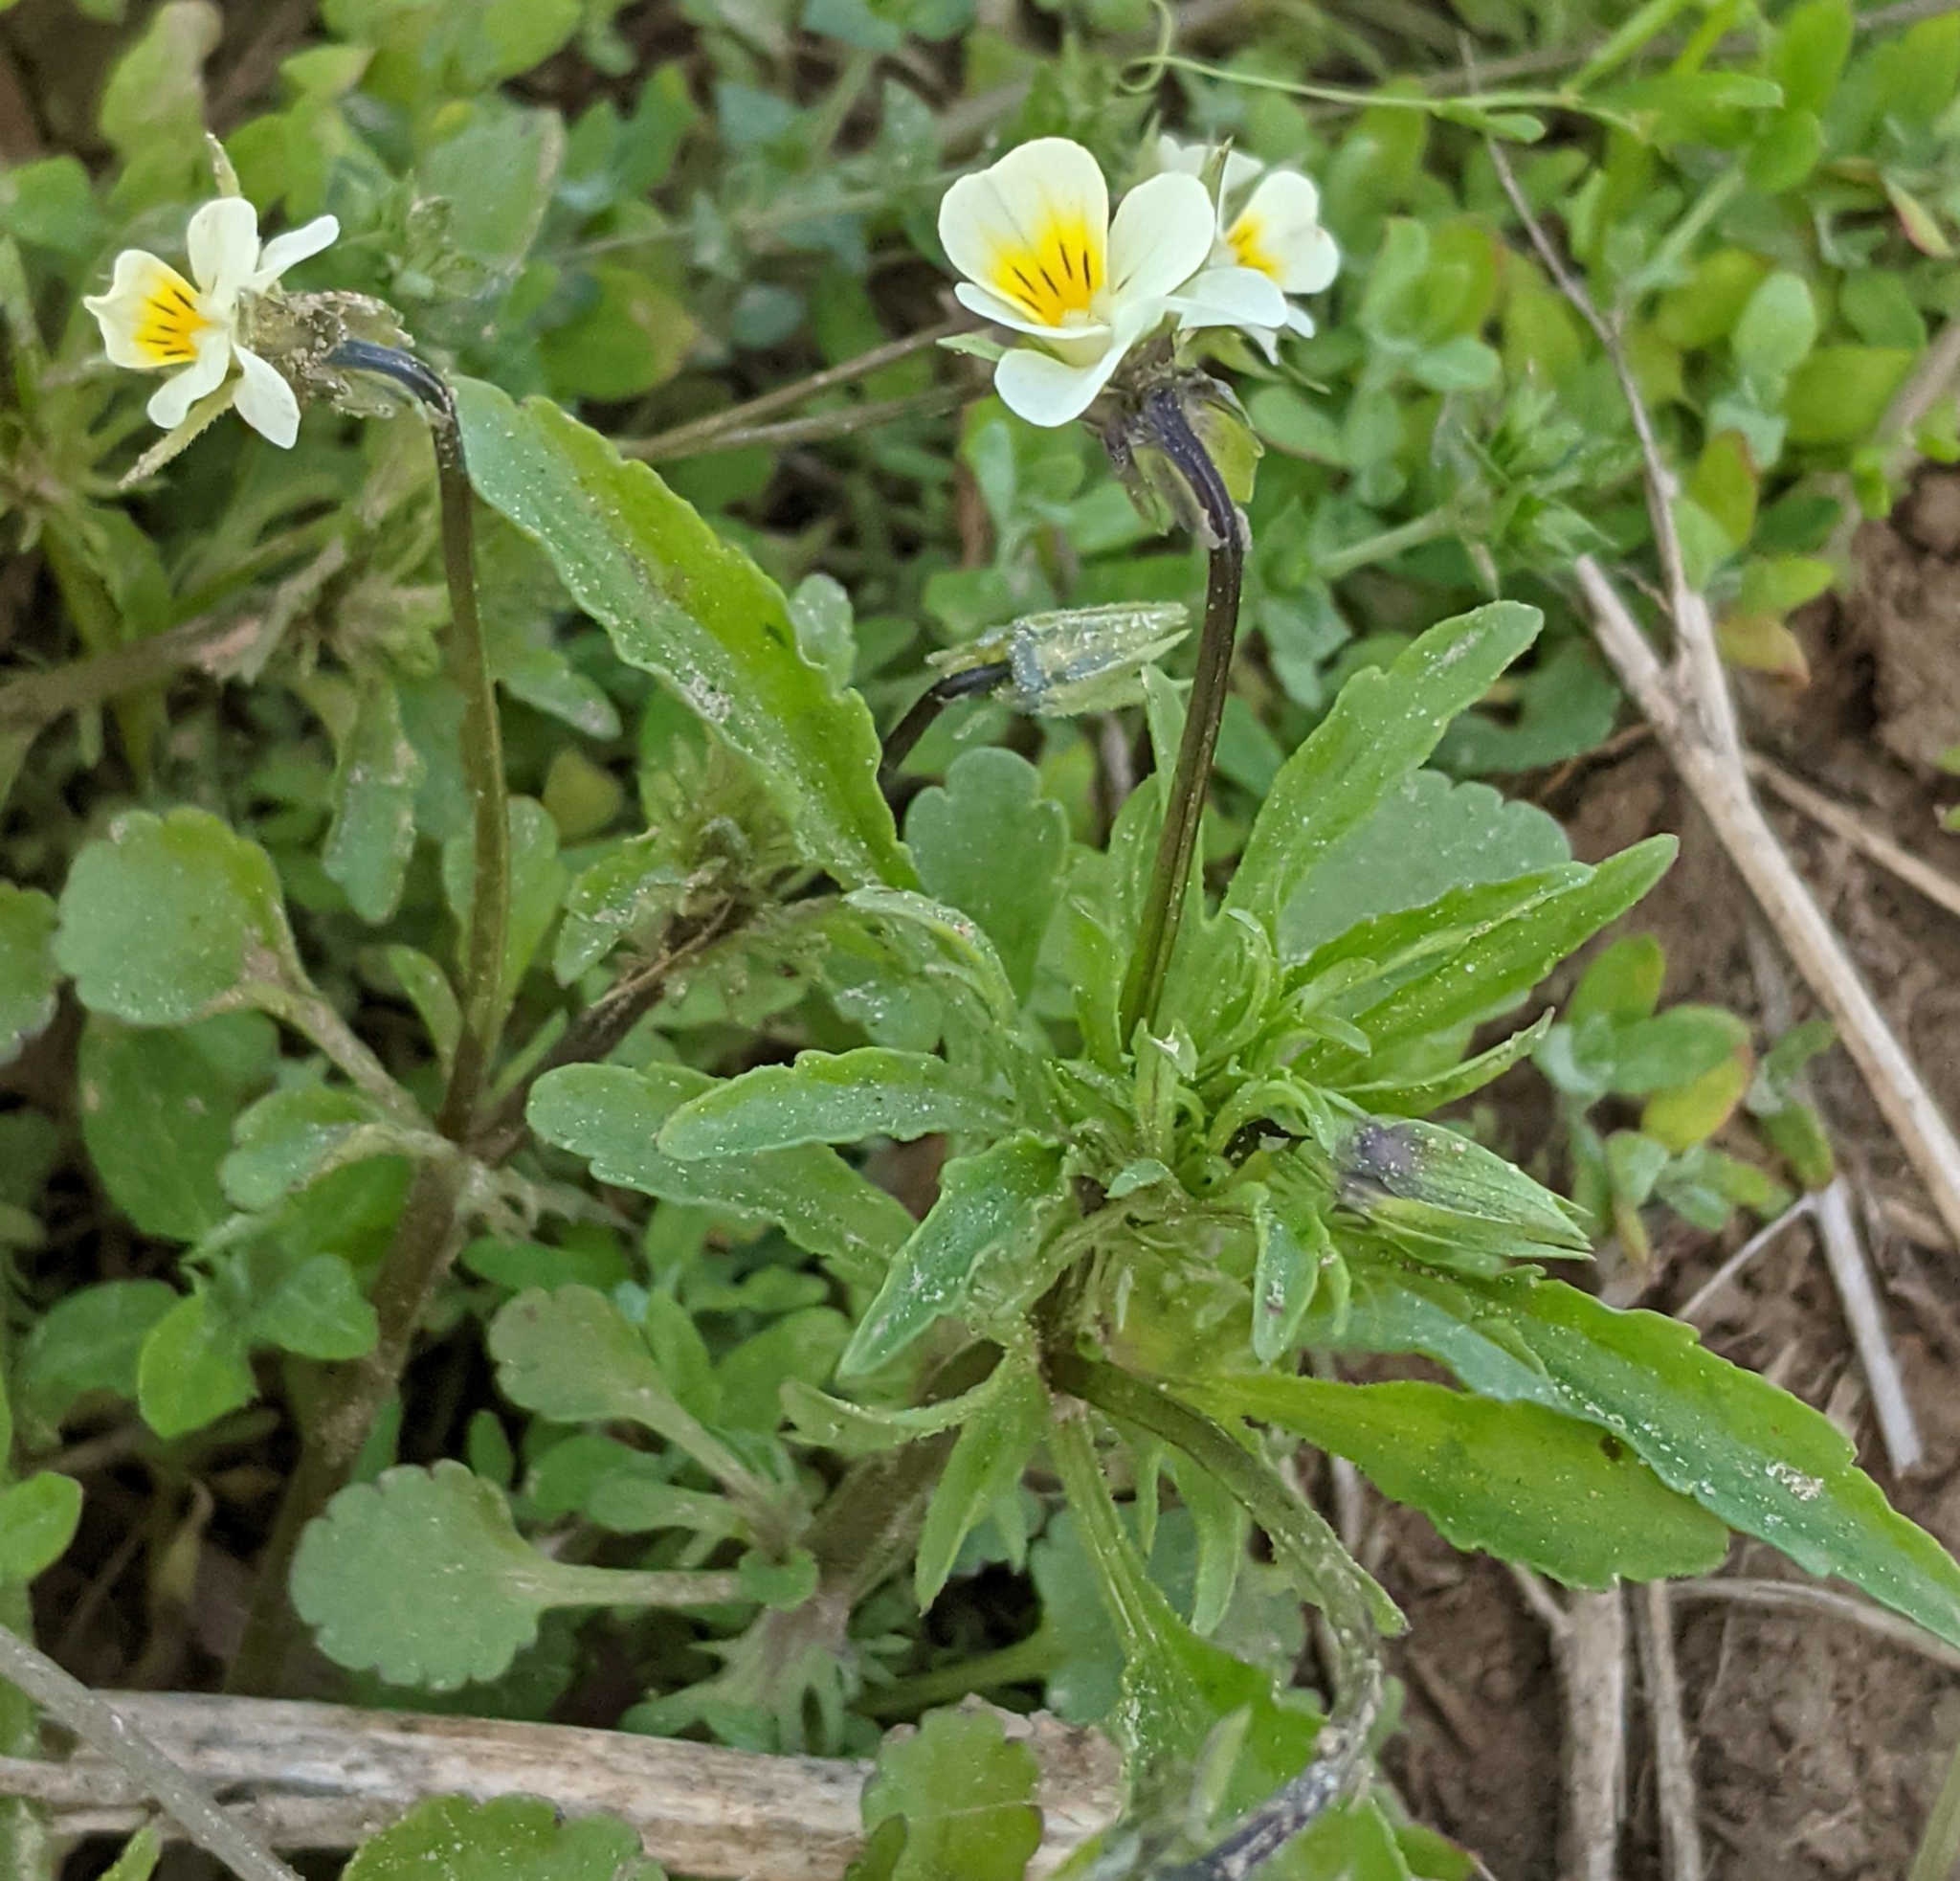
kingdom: Plantae
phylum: Tracheophyta
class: Magnoliopsida
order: Malpighiales
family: Violaceae
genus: Viola
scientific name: Viola arvensis
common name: Field pansy
